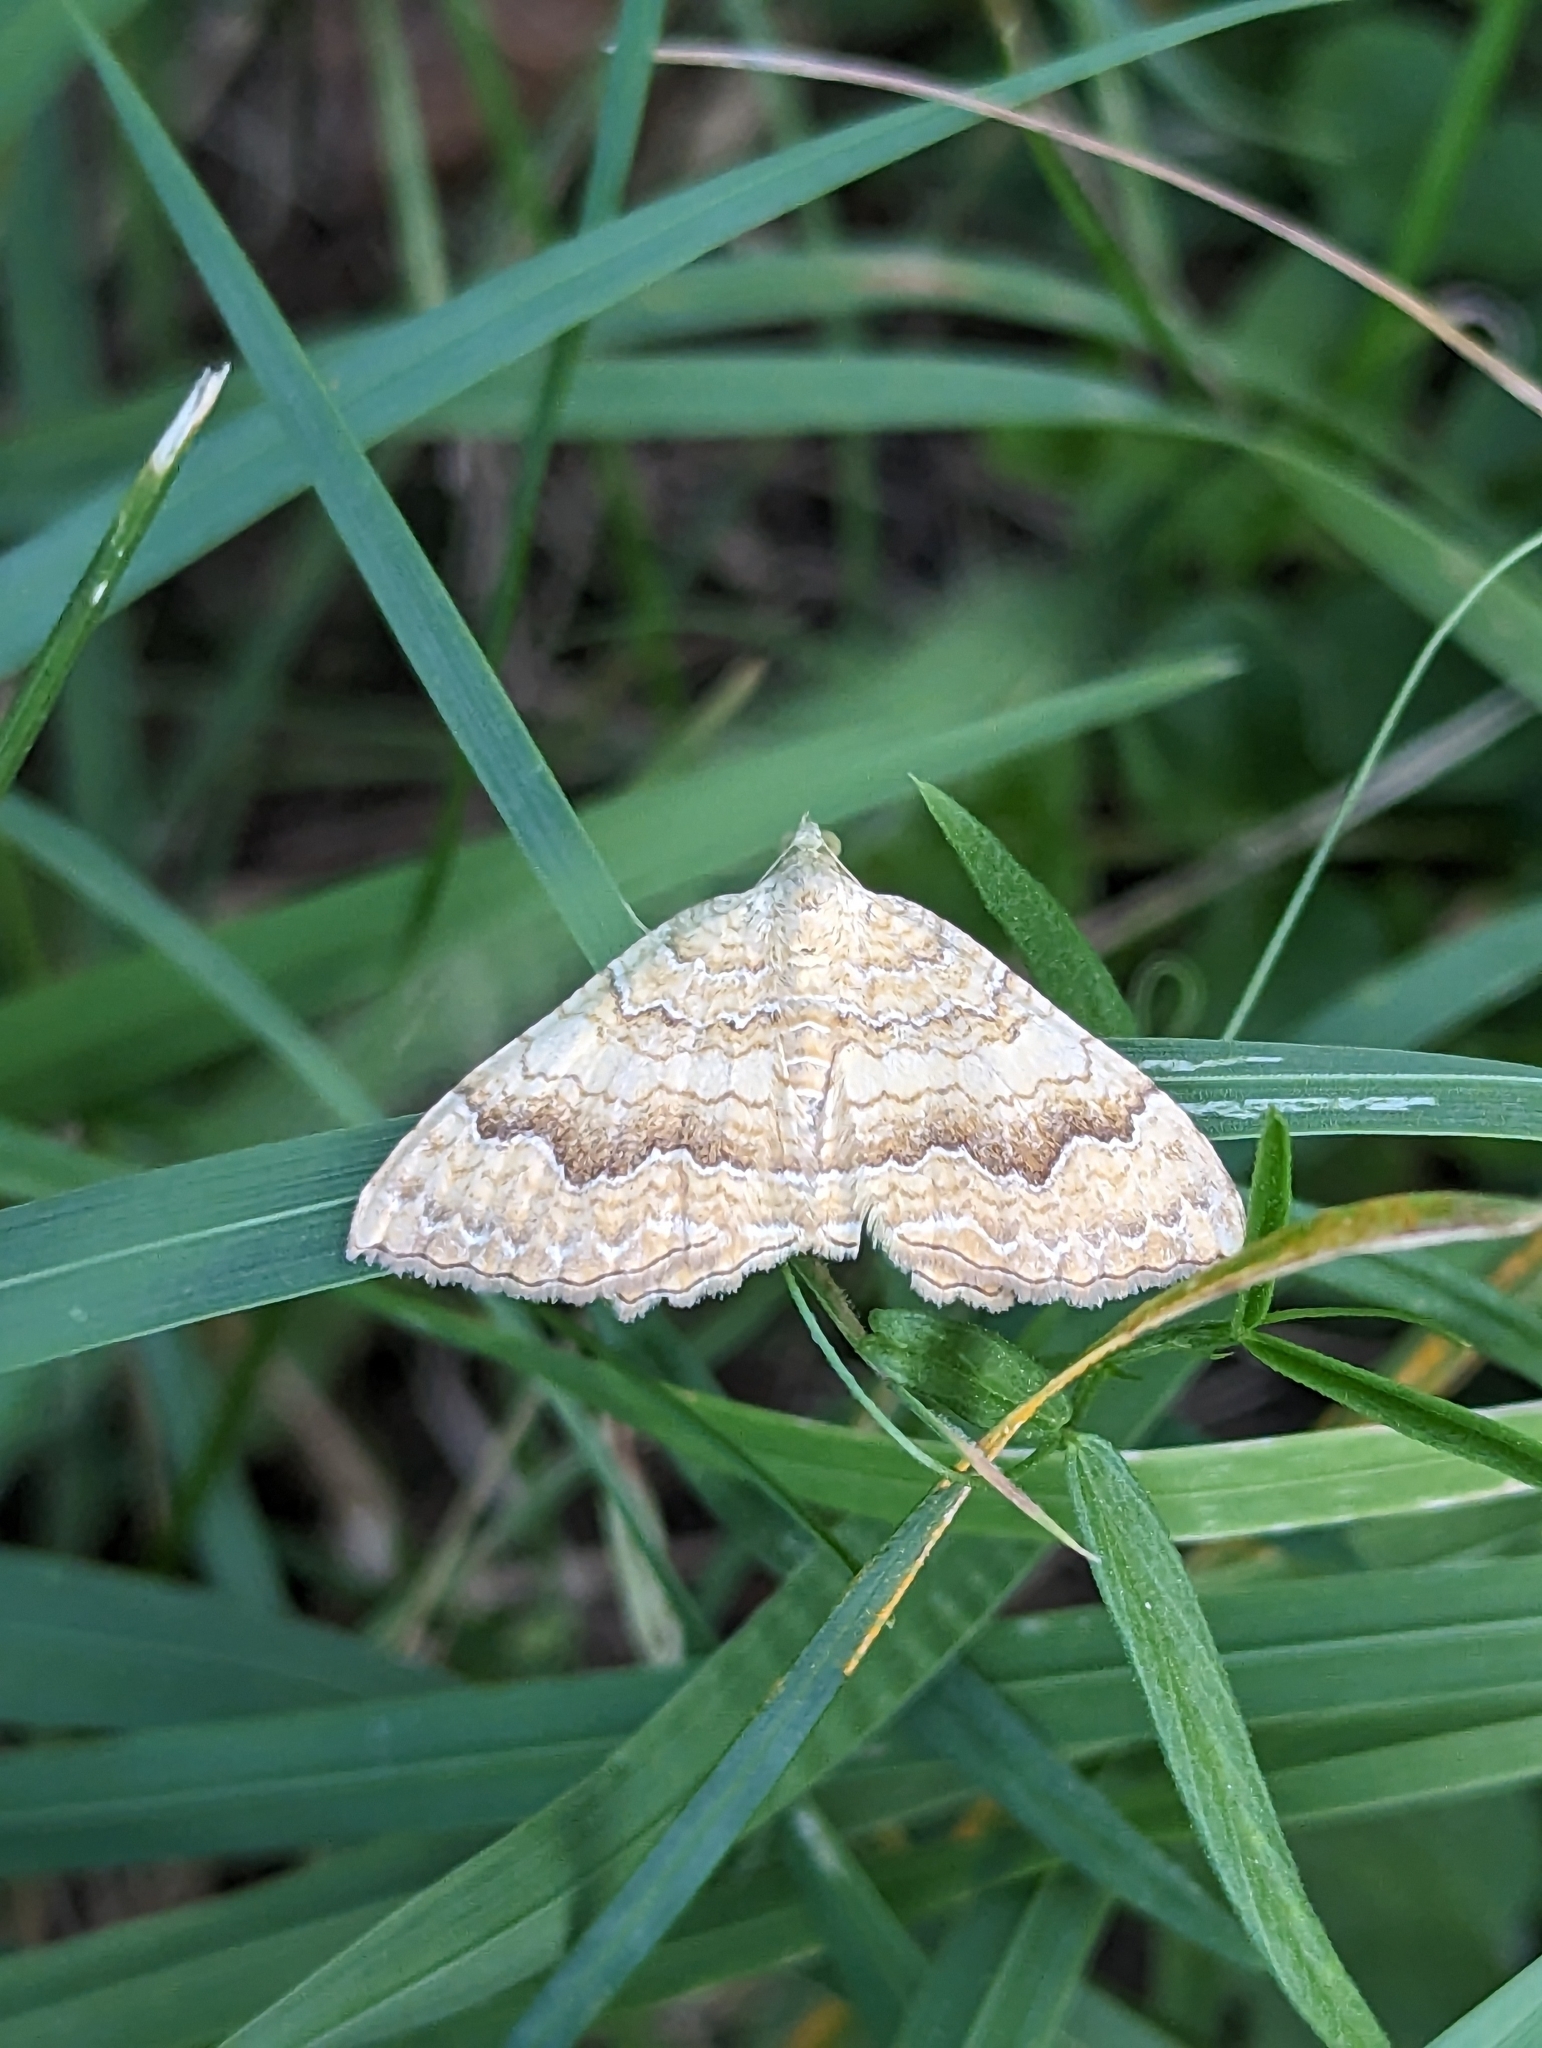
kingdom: Animalia
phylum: Arthropoda
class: Insecta
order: Lepidoptera
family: Geometridae
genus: Camptogramma
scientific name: Camptogramma bilineata
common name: Yellow shell
